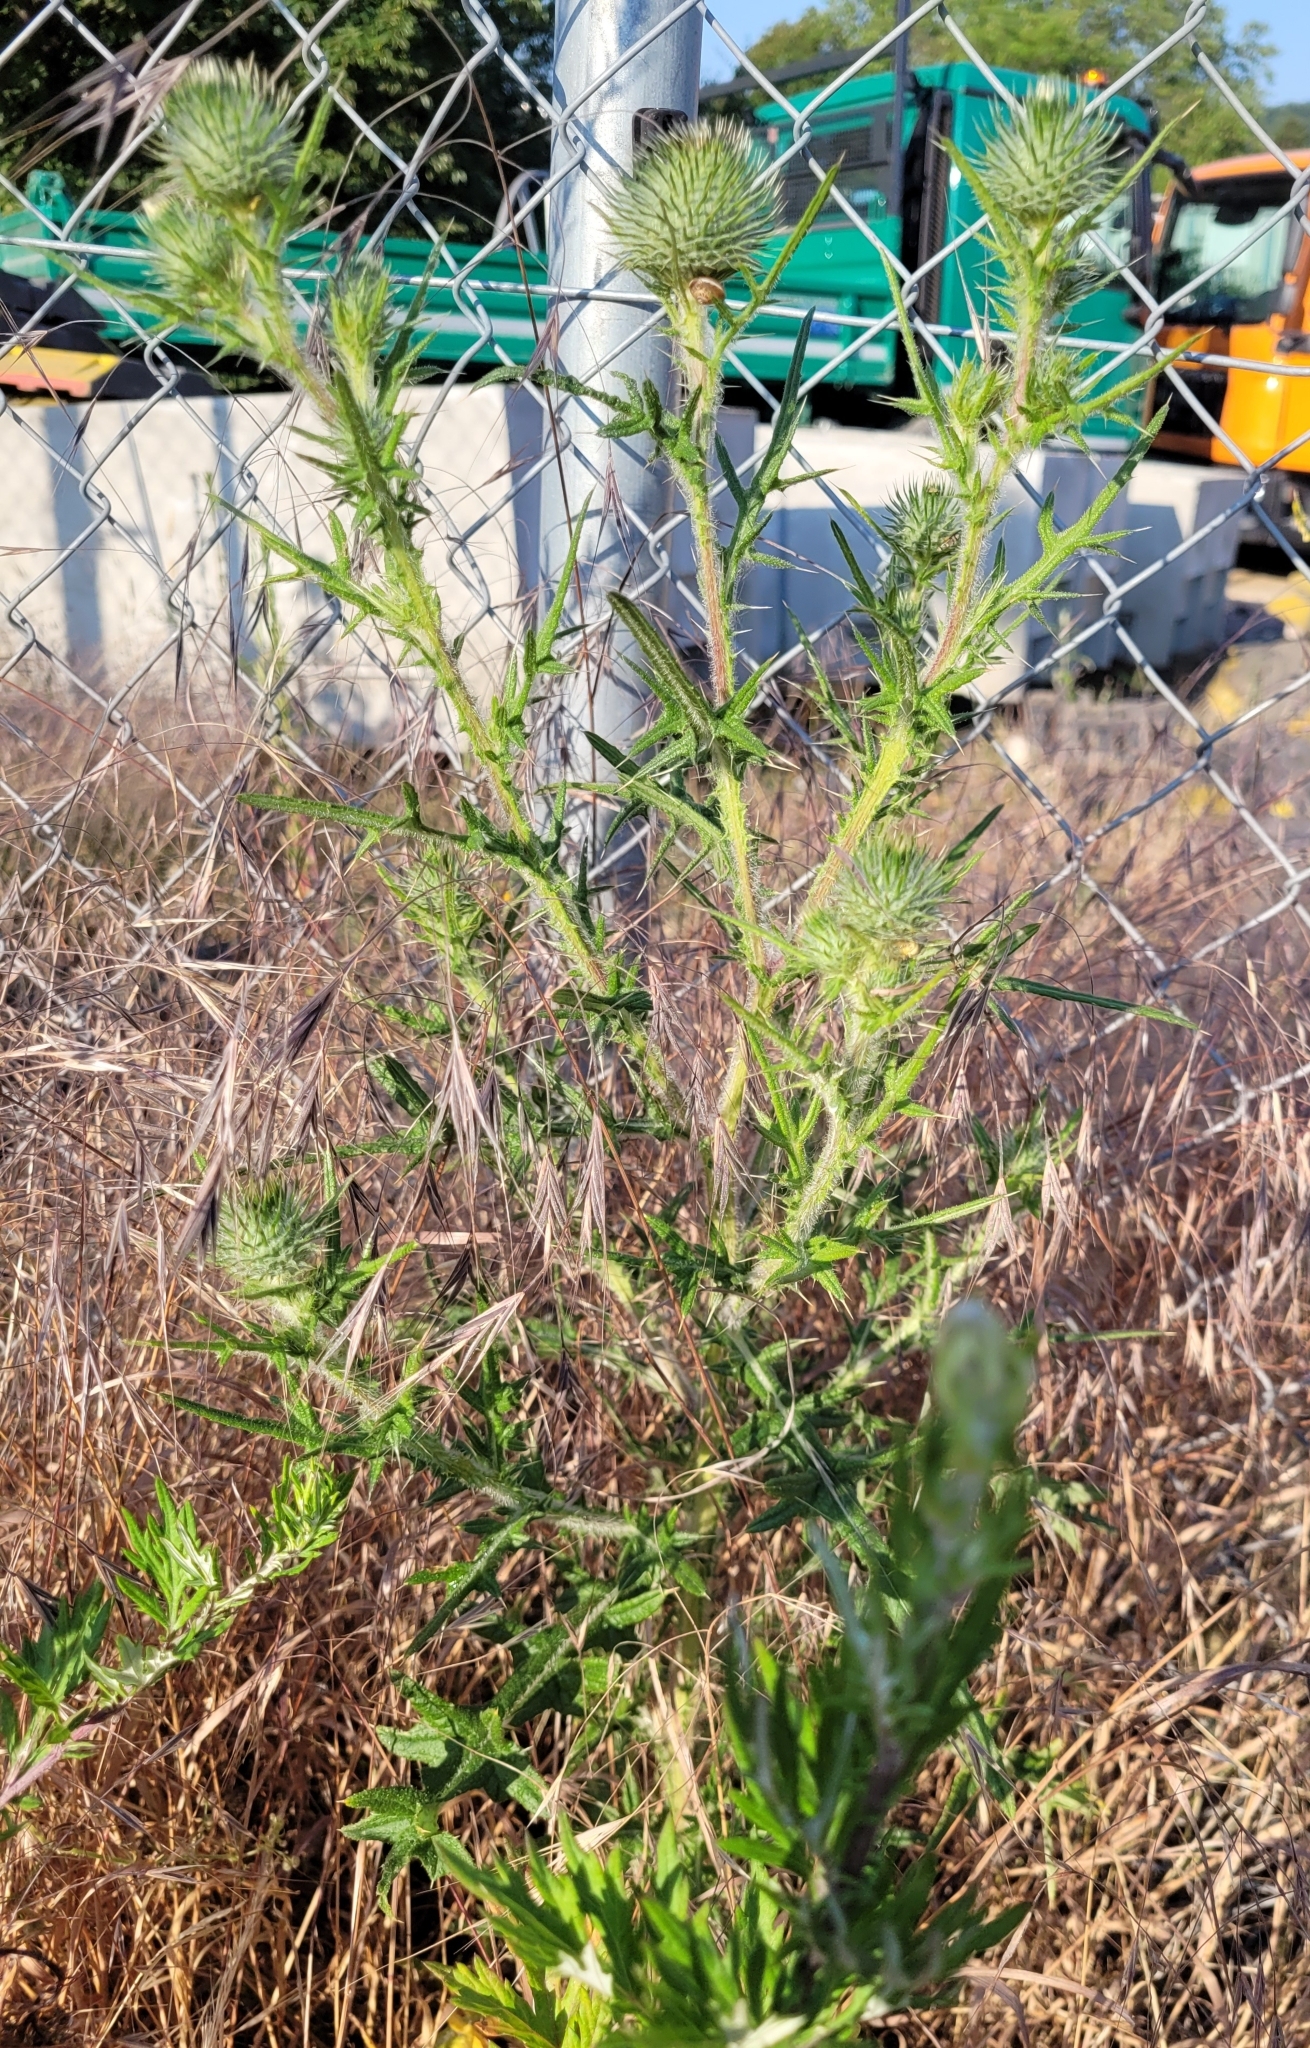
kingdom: Plantae
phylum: Tracheophyta
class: Magnoliopsida
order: Asterales
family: Asteraceae
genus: Cirsium
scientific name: Cirsium vulgare
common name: Bull thistle
